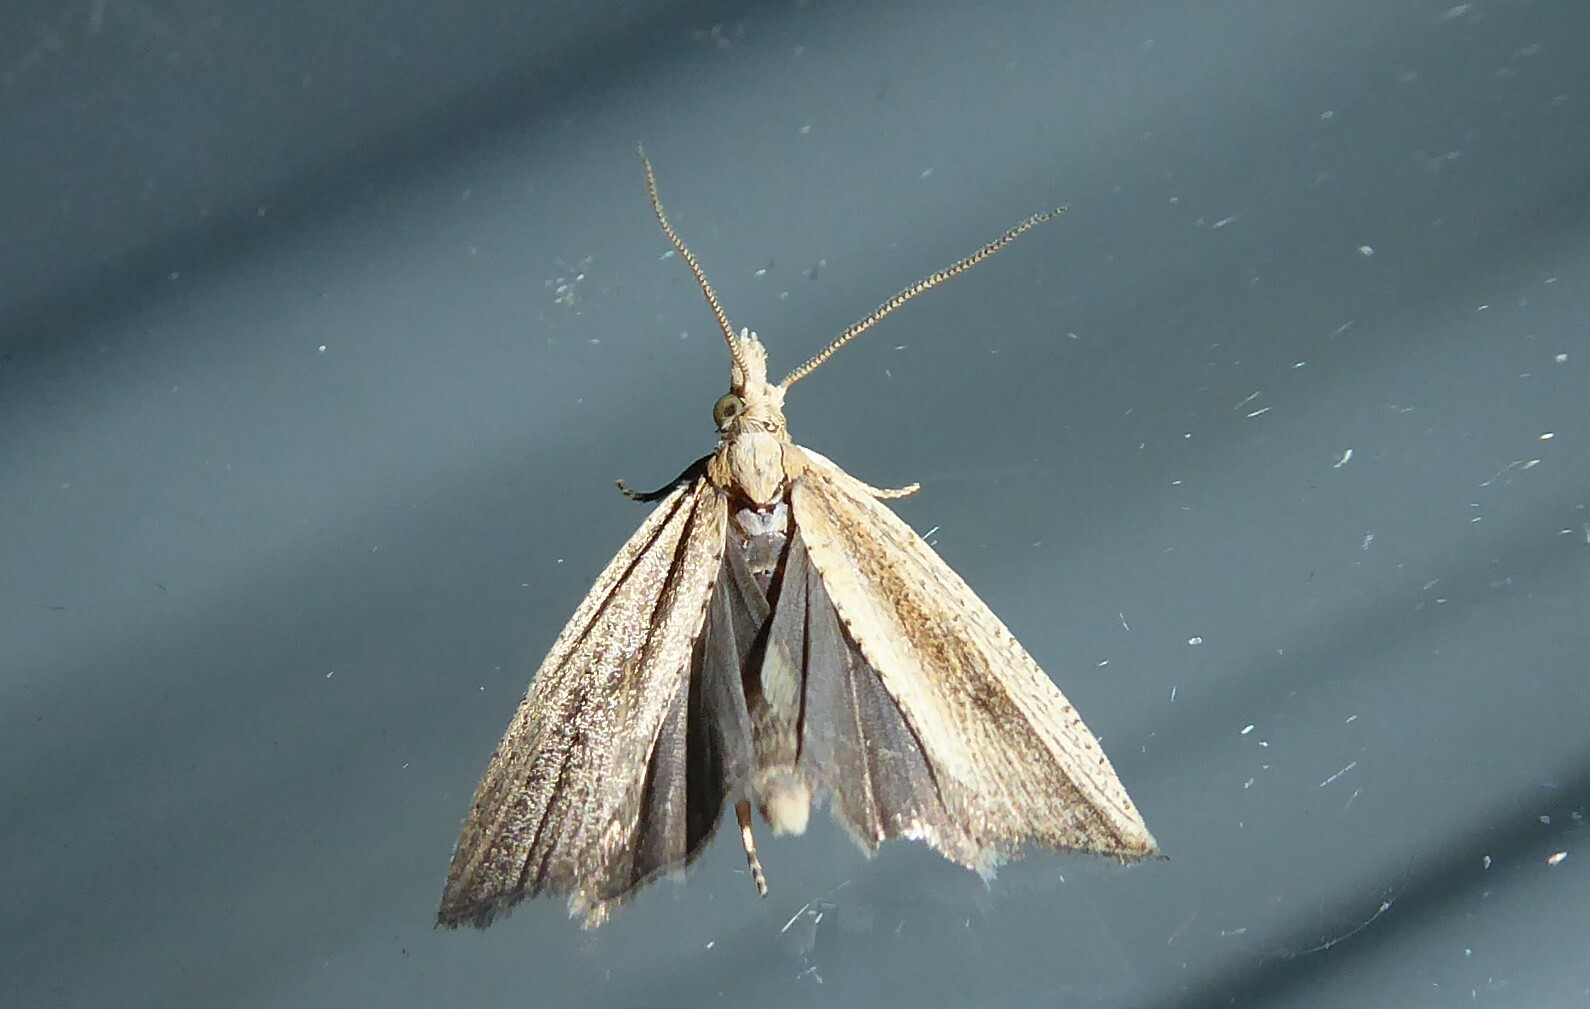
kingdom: Animalia
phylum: Arthropoda
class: Insecta
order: Lepidoptera
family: Tortricidae
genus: Bactra
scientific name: Bactra noteraula
